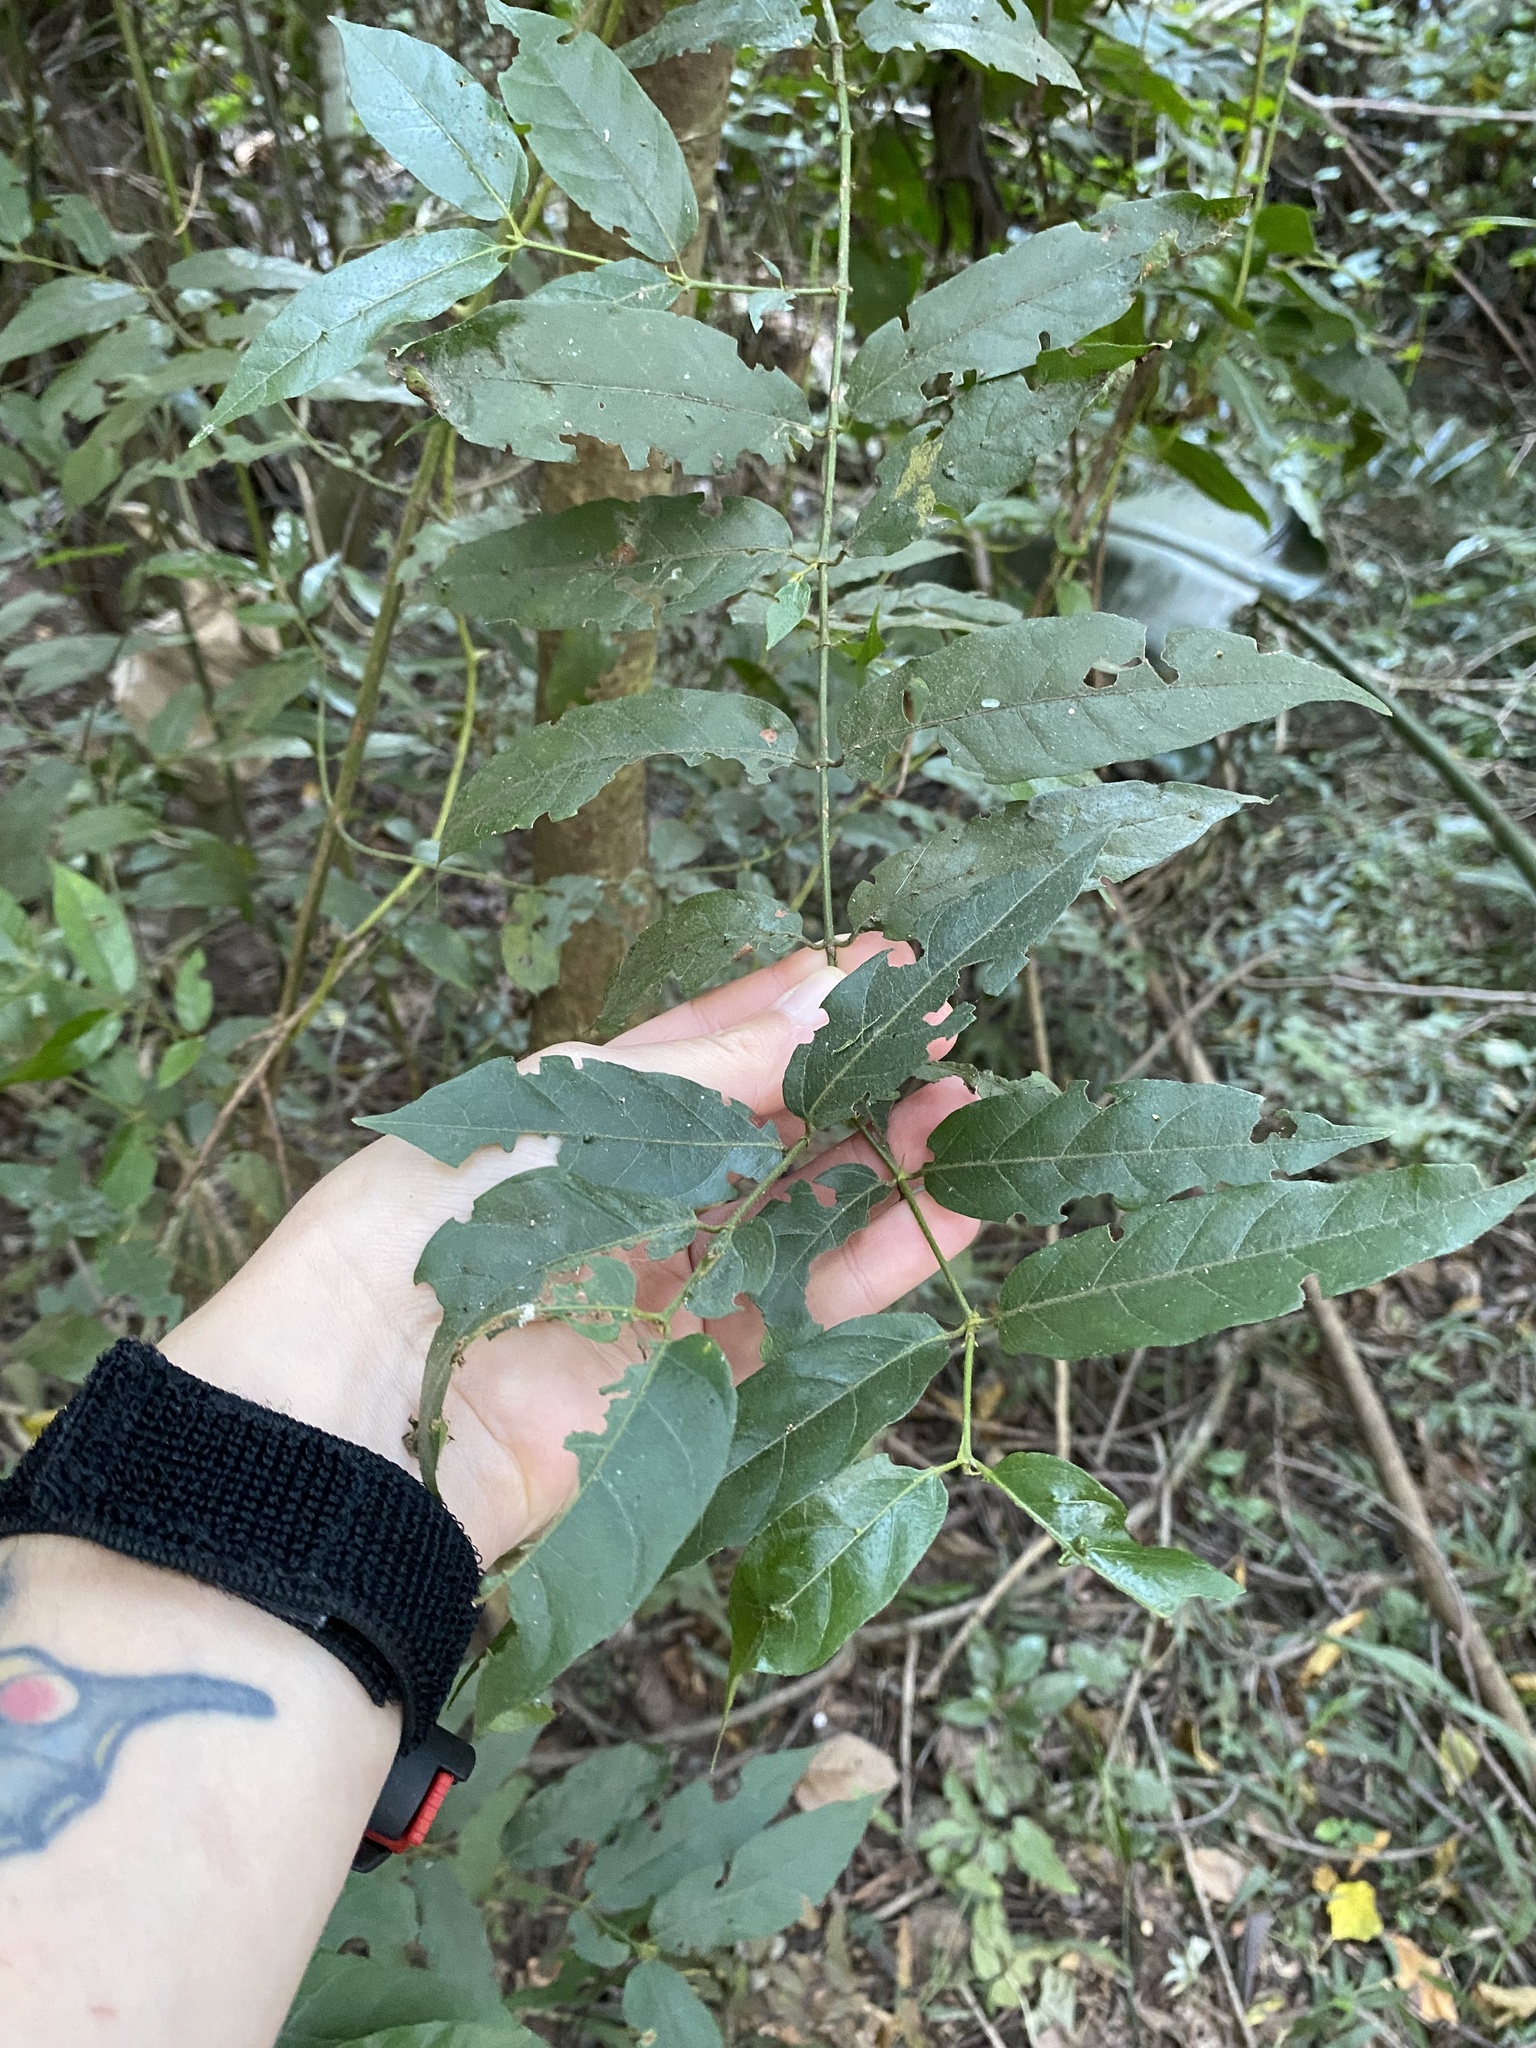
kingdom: Plantae
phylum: Tracheophyta
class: Magnoliopsida
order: Gentianales
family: Rubiaceae
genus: Keetia
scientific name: Keetia gueinzii
